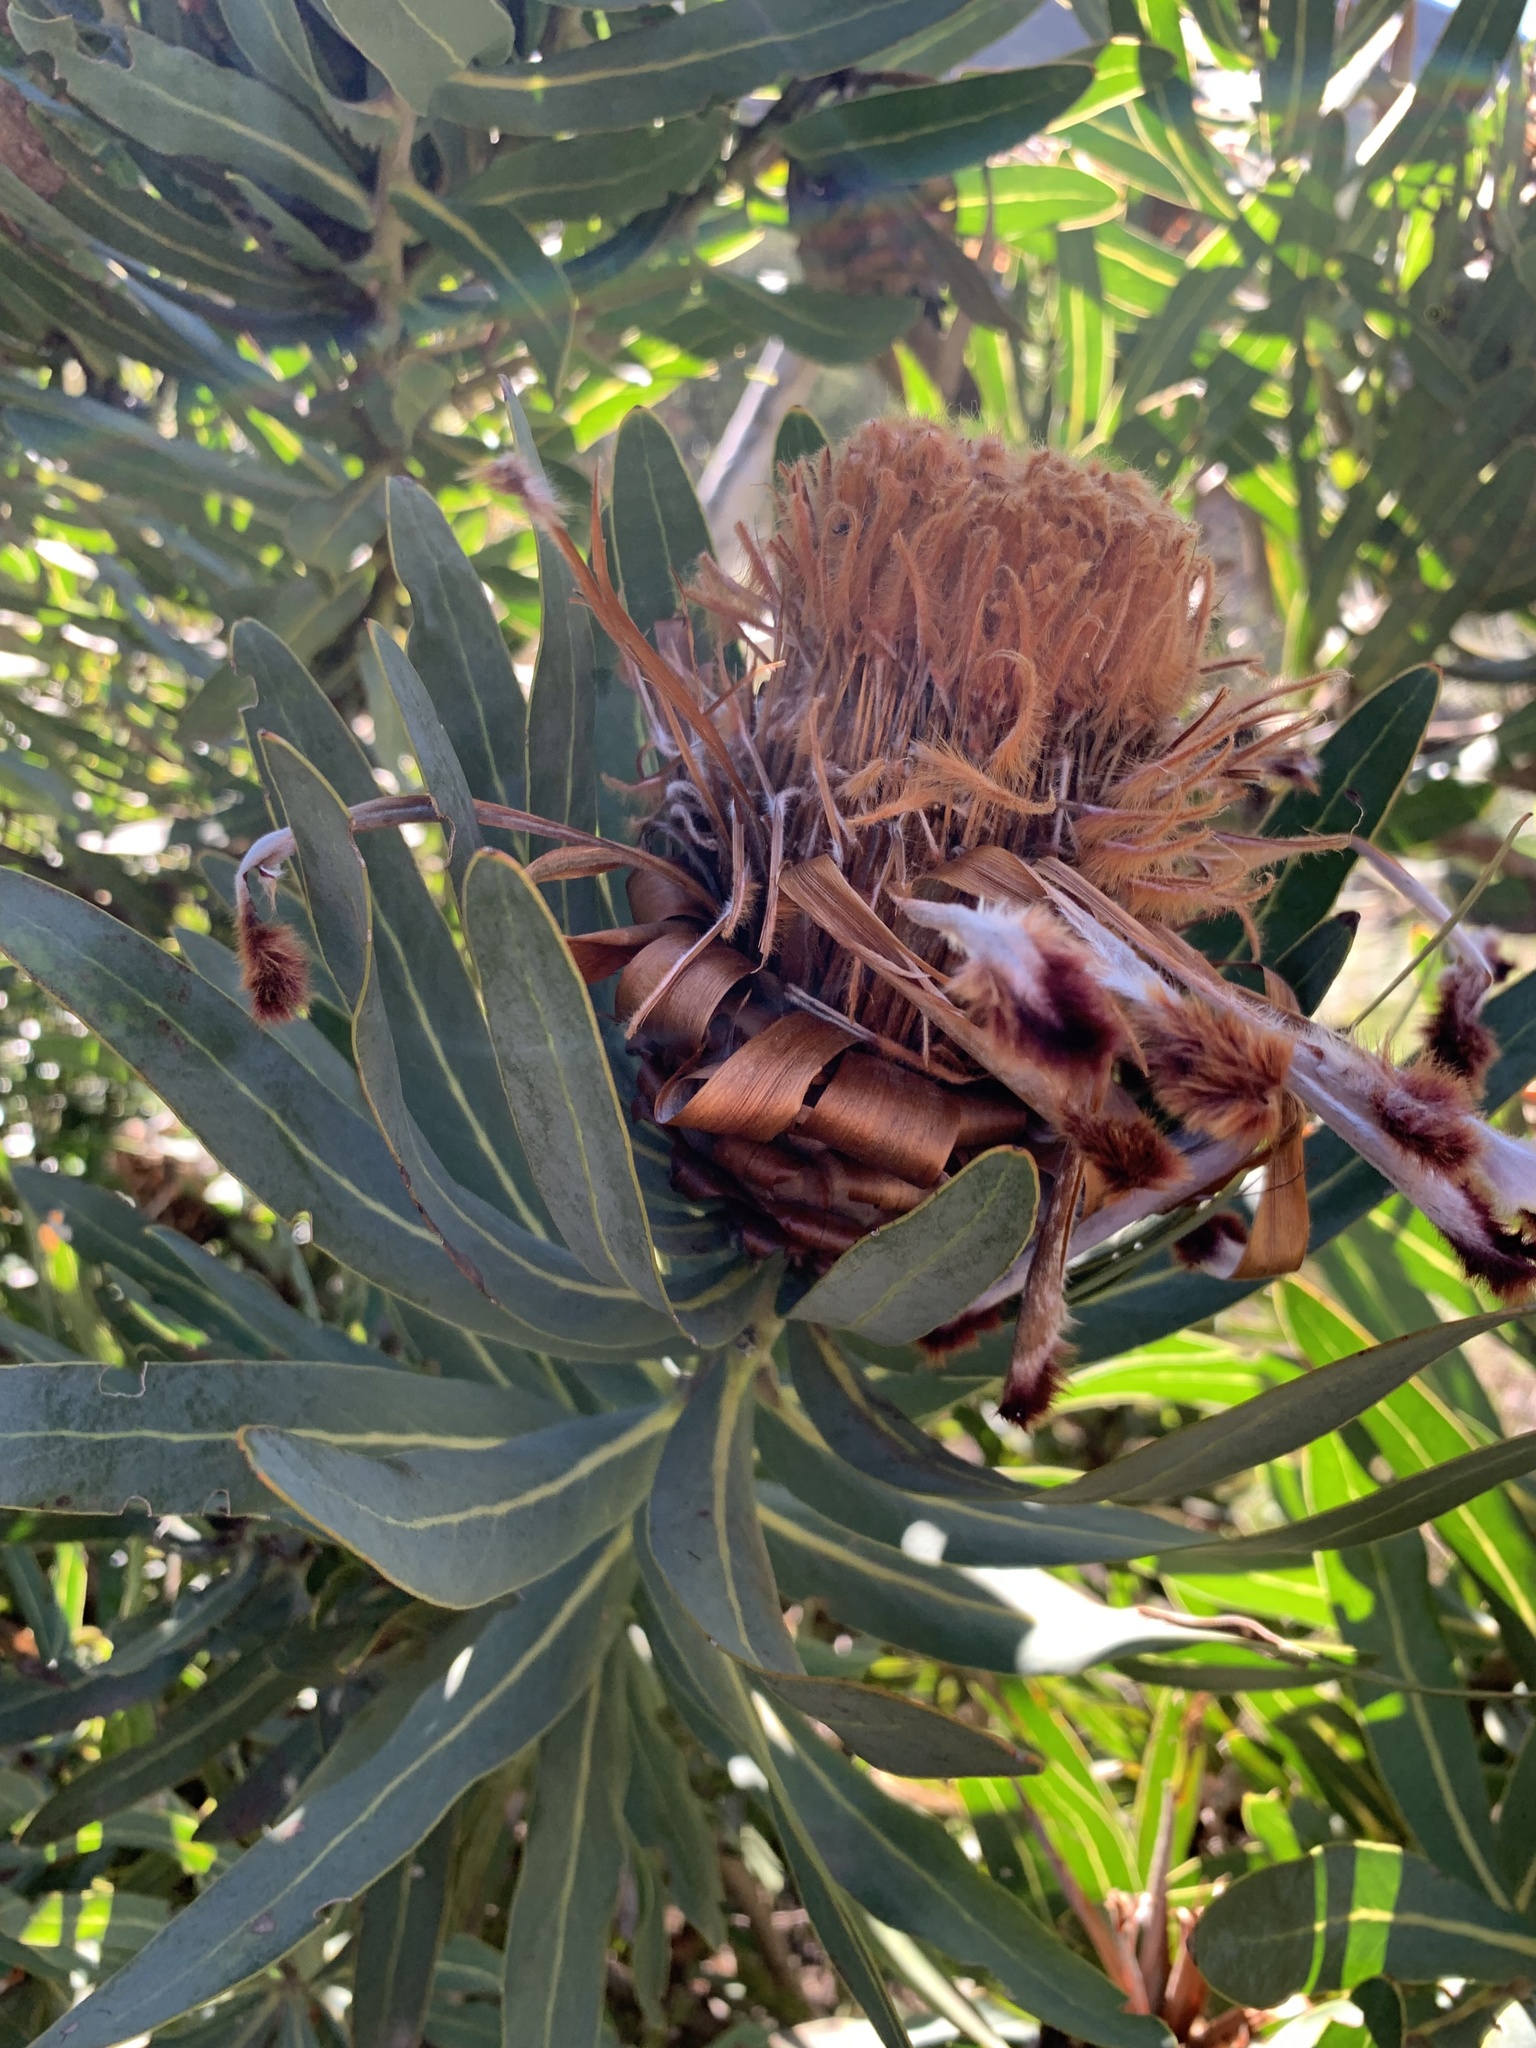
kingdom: Plantae
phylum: Tracheophyta
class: Magnoliopsida
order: Proteales
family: Proteaceae
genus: Protea
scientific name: Protea neriifolia
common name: Blue sugarbush
